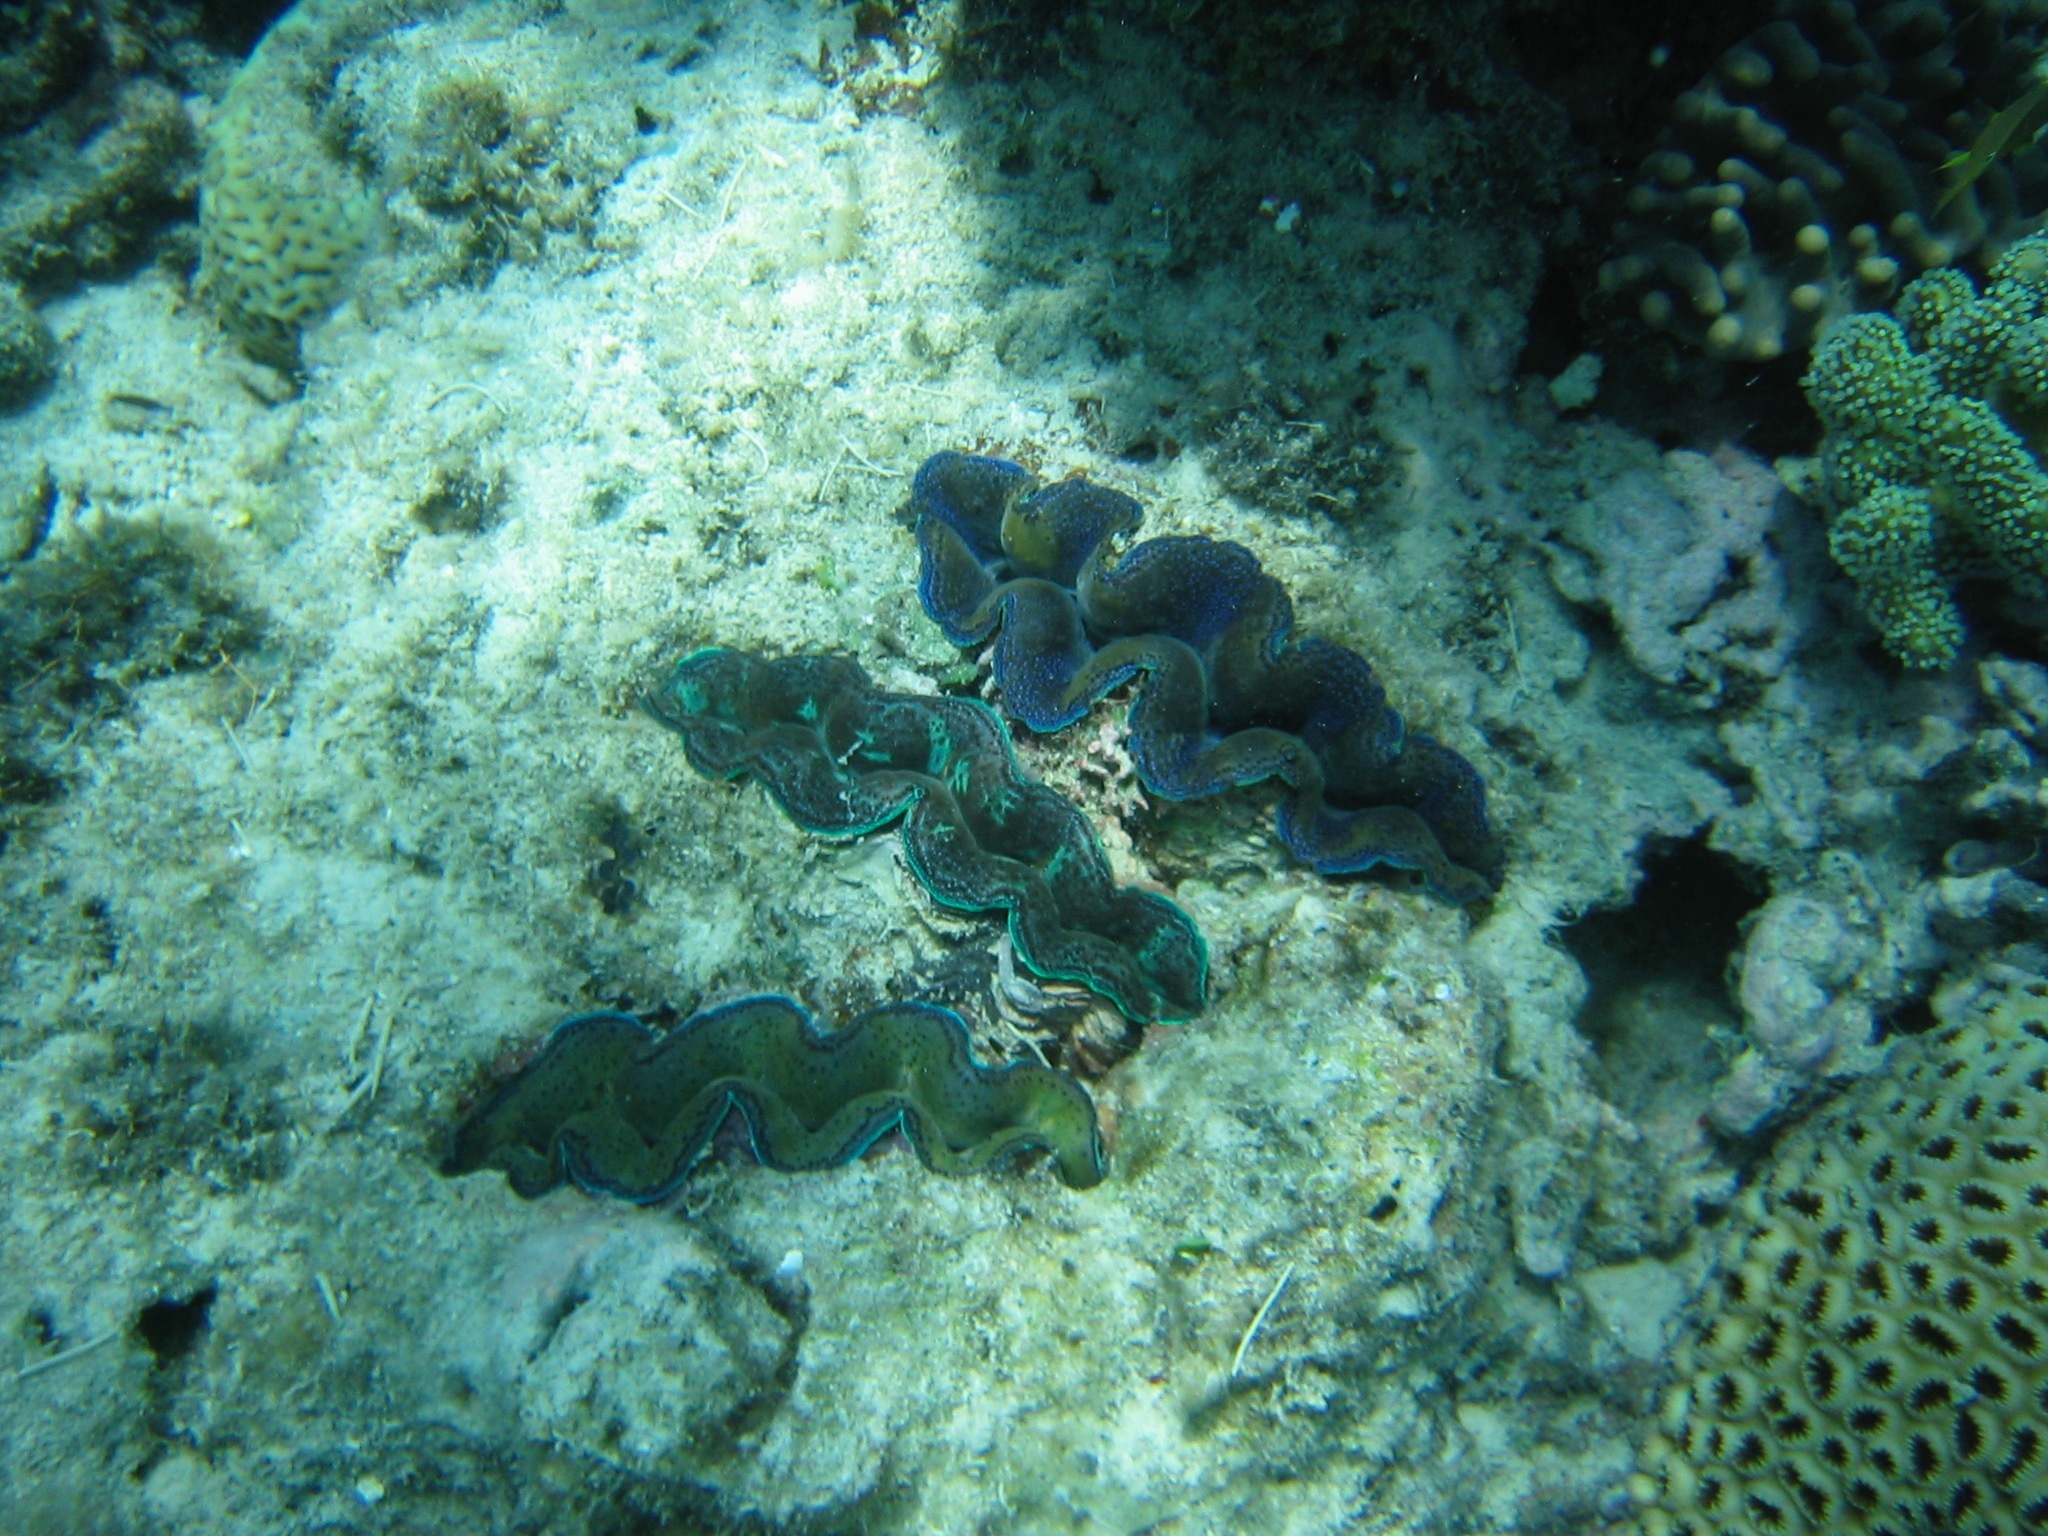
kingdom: Animalia
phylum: Mollusca
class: Bivalvia
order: Cardiida
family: Cardiidae
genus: Tridacna
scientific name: Tridacna crocea
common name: Boring clam
